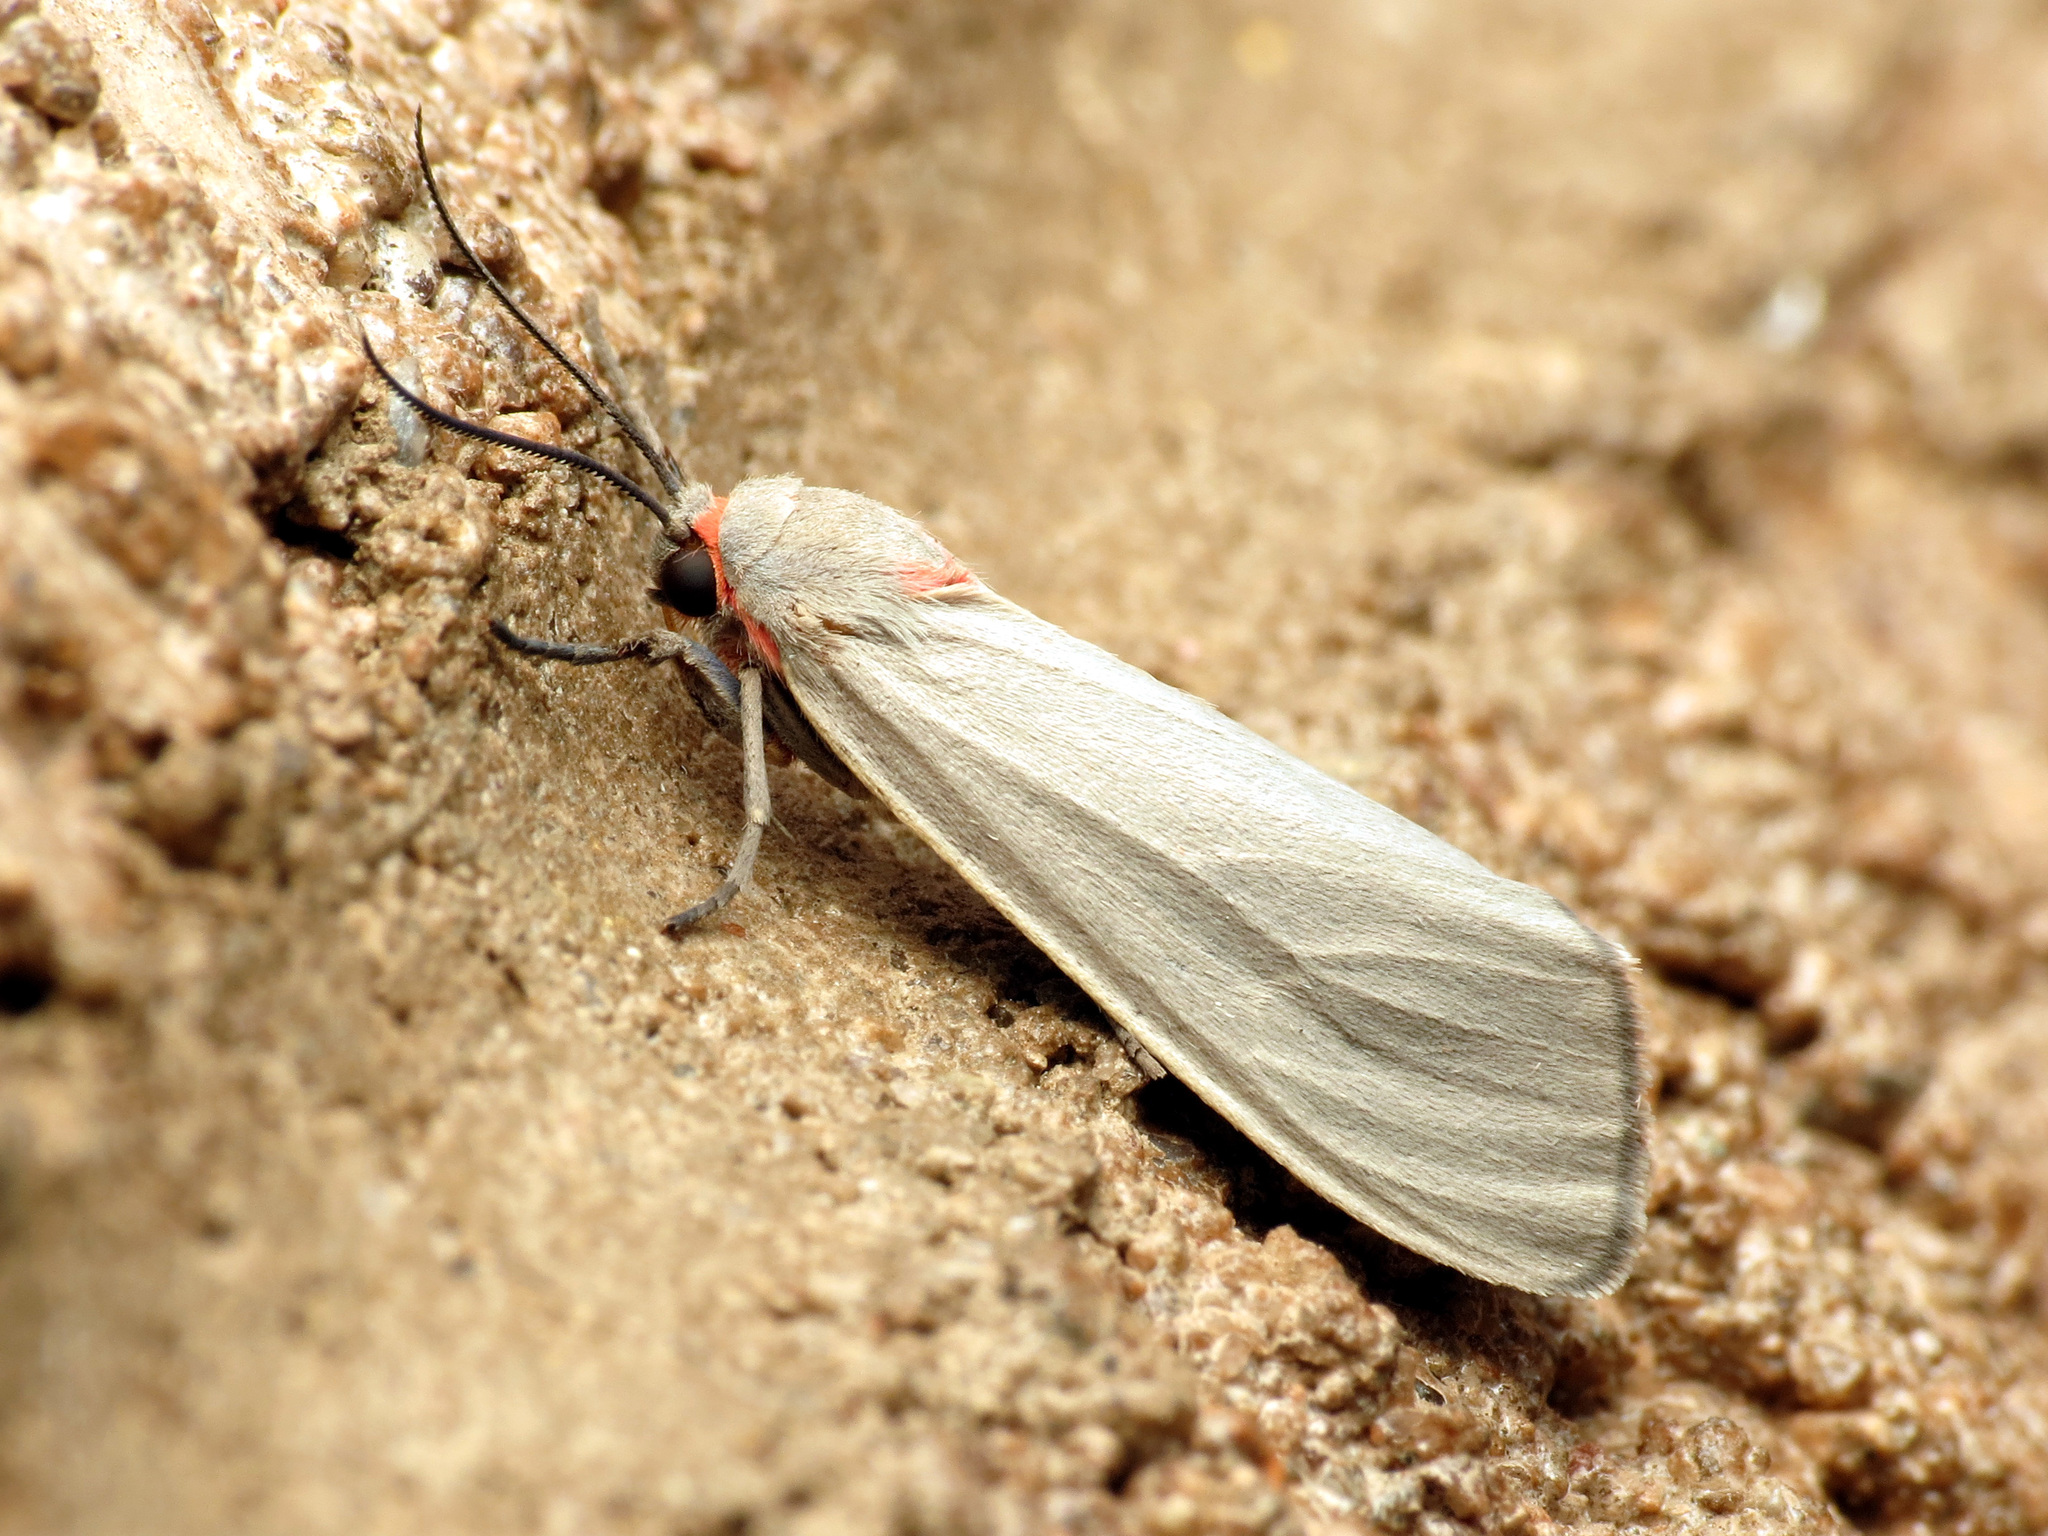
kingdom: Animalia
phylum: Arthropoda
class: Insecta
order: Lepidoptera
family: Erebidae
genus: Pygarctia
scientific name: Pygarctia murina
